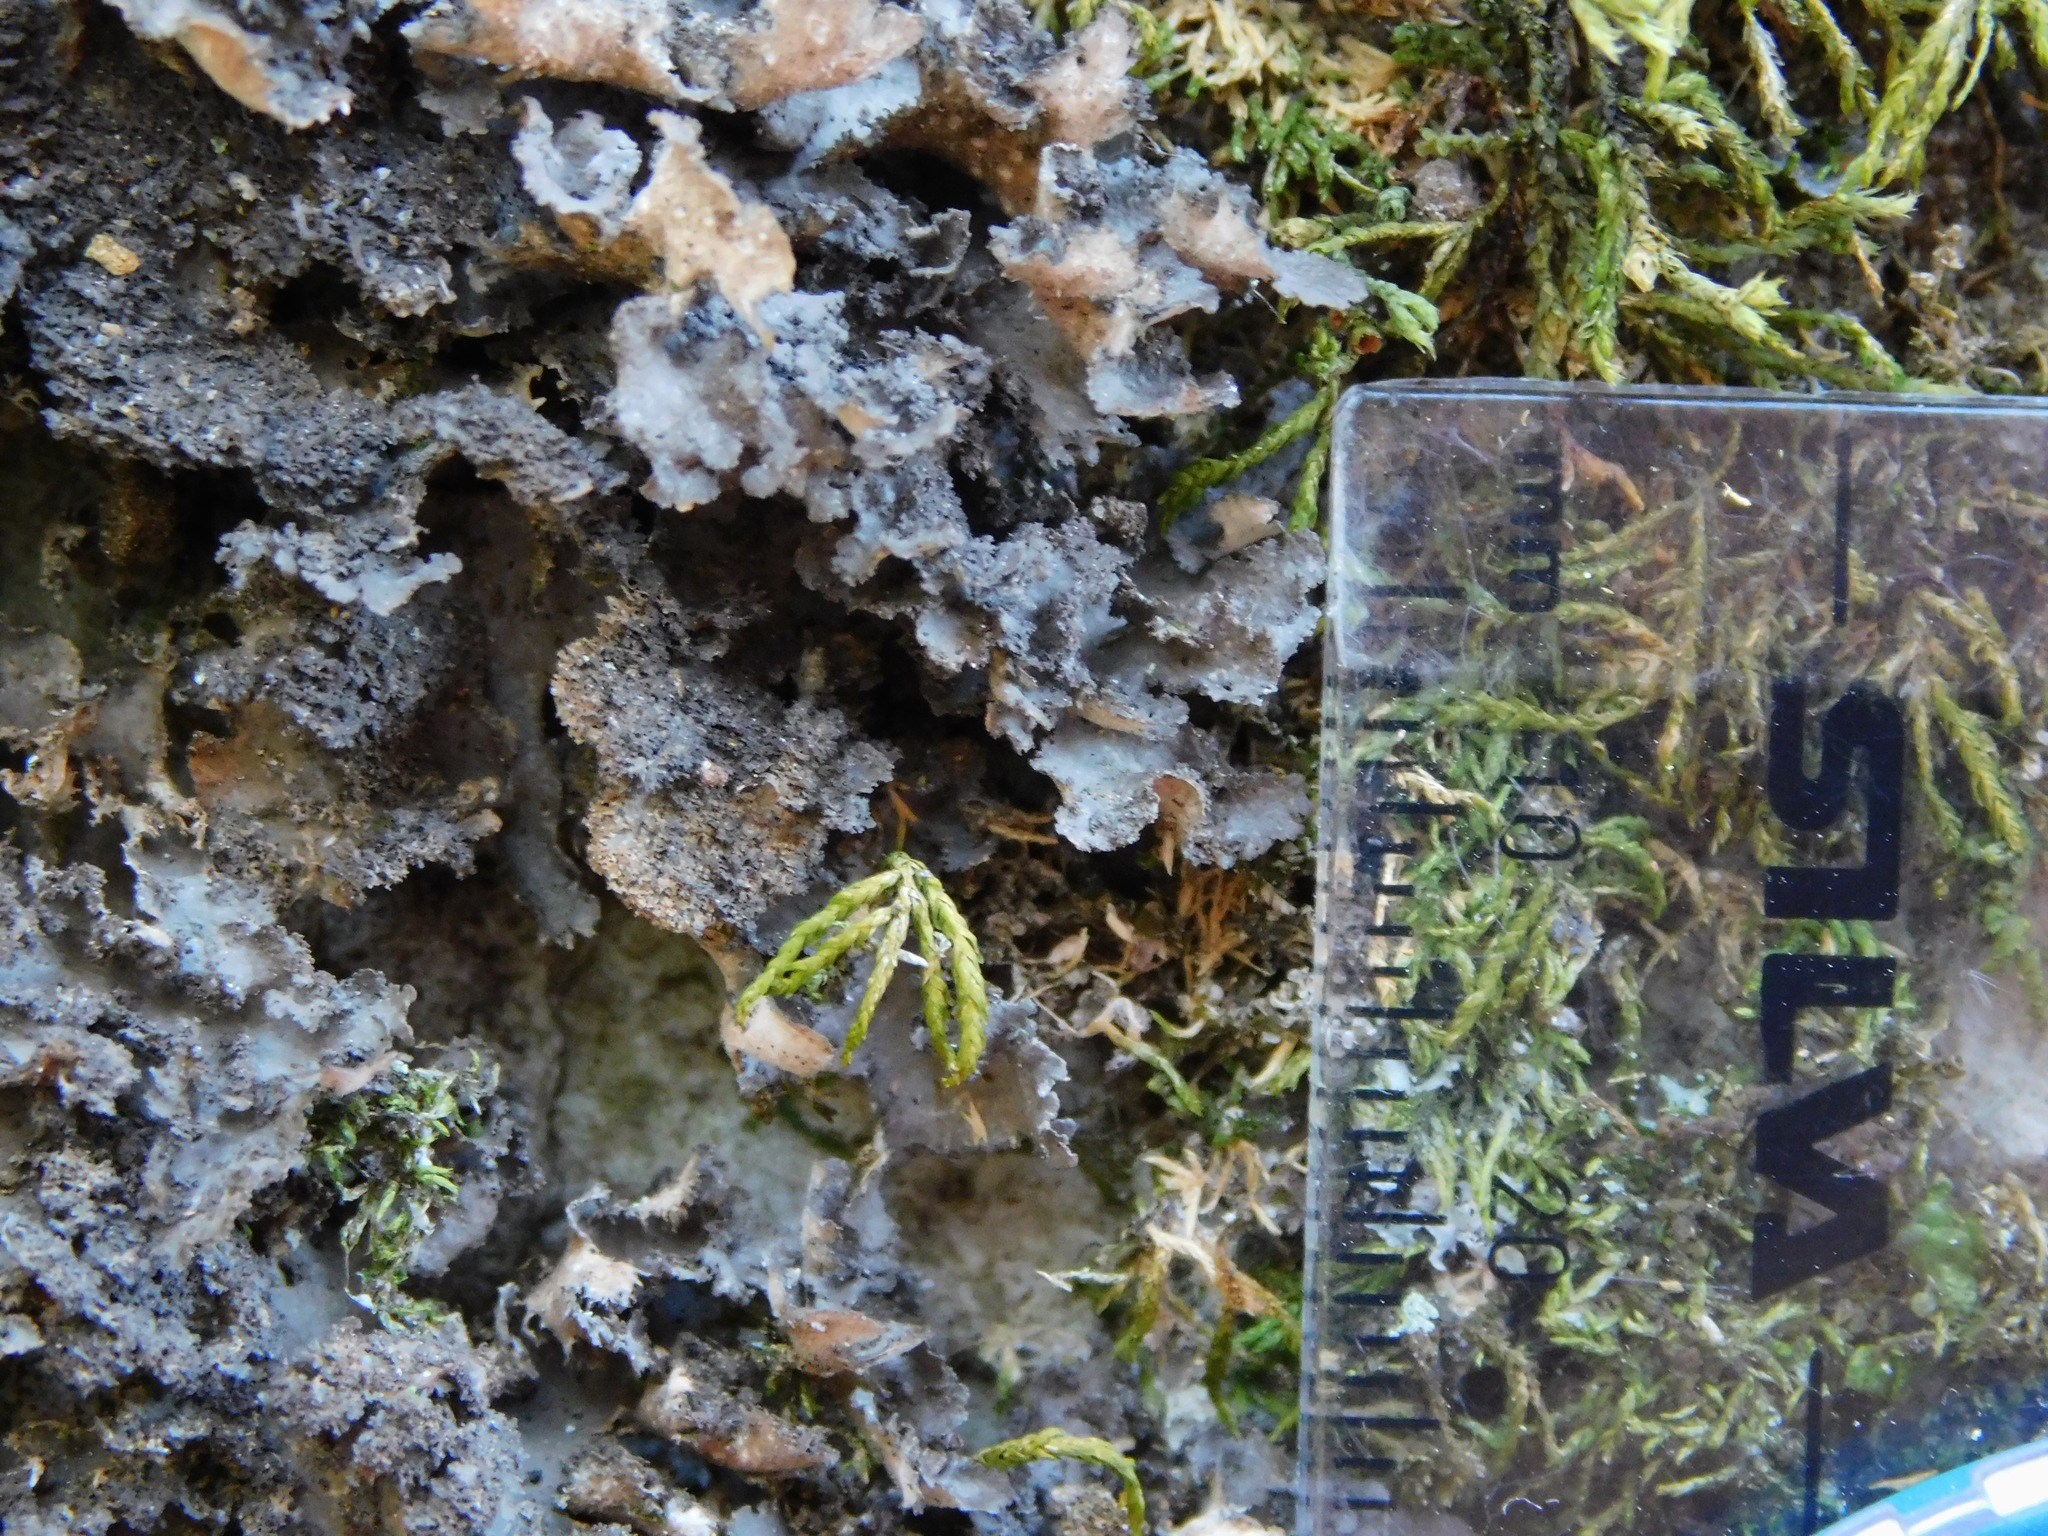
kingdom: Fungi
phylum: Ascomycota
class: Lecanoromycetes
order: Peltigerales
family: Lobariaceae
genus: Sticta
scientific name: Sticta carolinensis
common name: Carolina moon lichen
